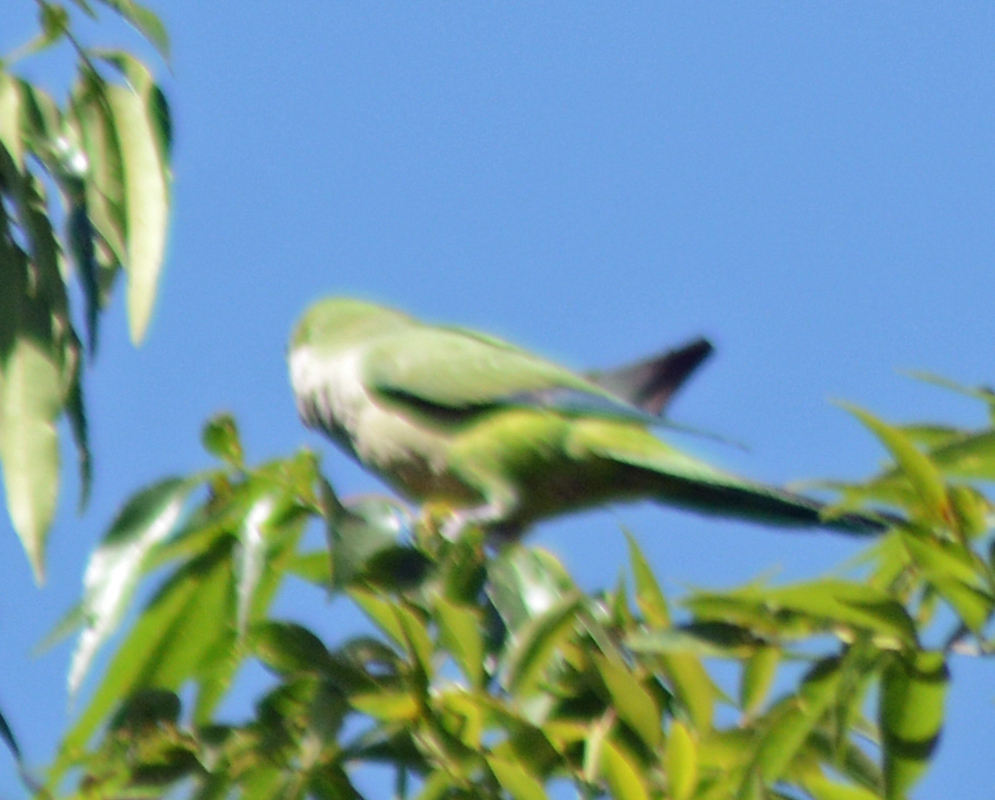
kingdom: Animalia
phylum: Chordata
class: Aves
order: Psittaciformes
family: Psittacidae
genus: Myiopsitta
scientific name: Myiopsitta monachus
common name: Monk parakeet
